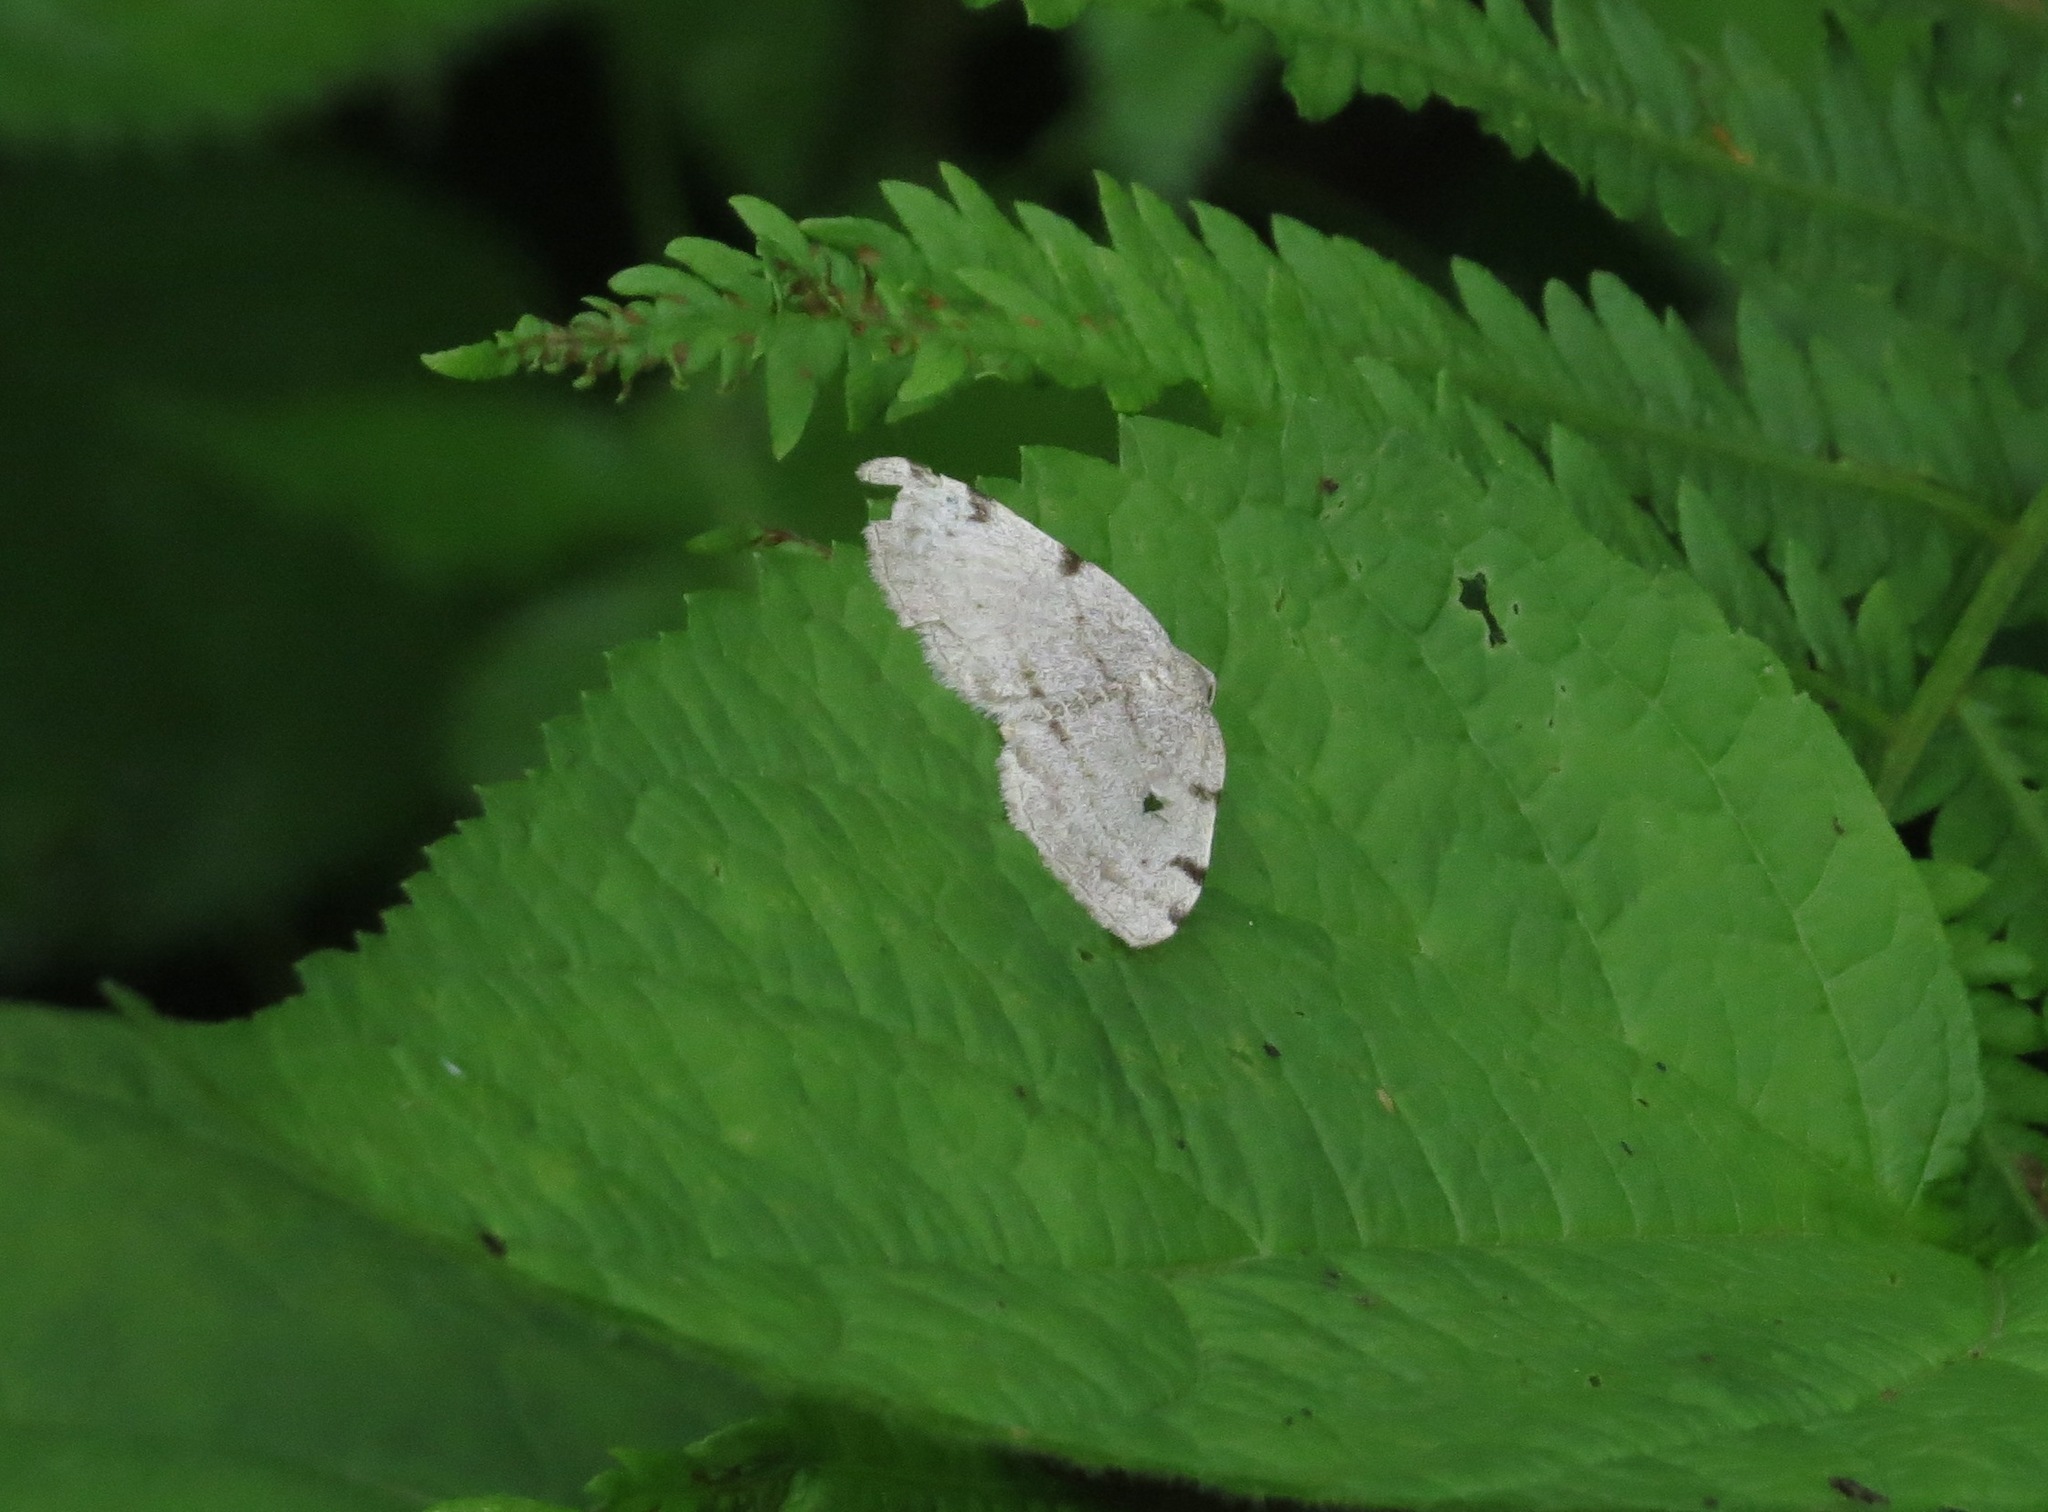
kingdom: Animalia
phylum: Arthropoda
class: Insecta
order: Lepidoptera
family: Geometridae
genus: Heterophleps
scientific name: Heterophleps triguttaria
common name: Three-spotted fillip
